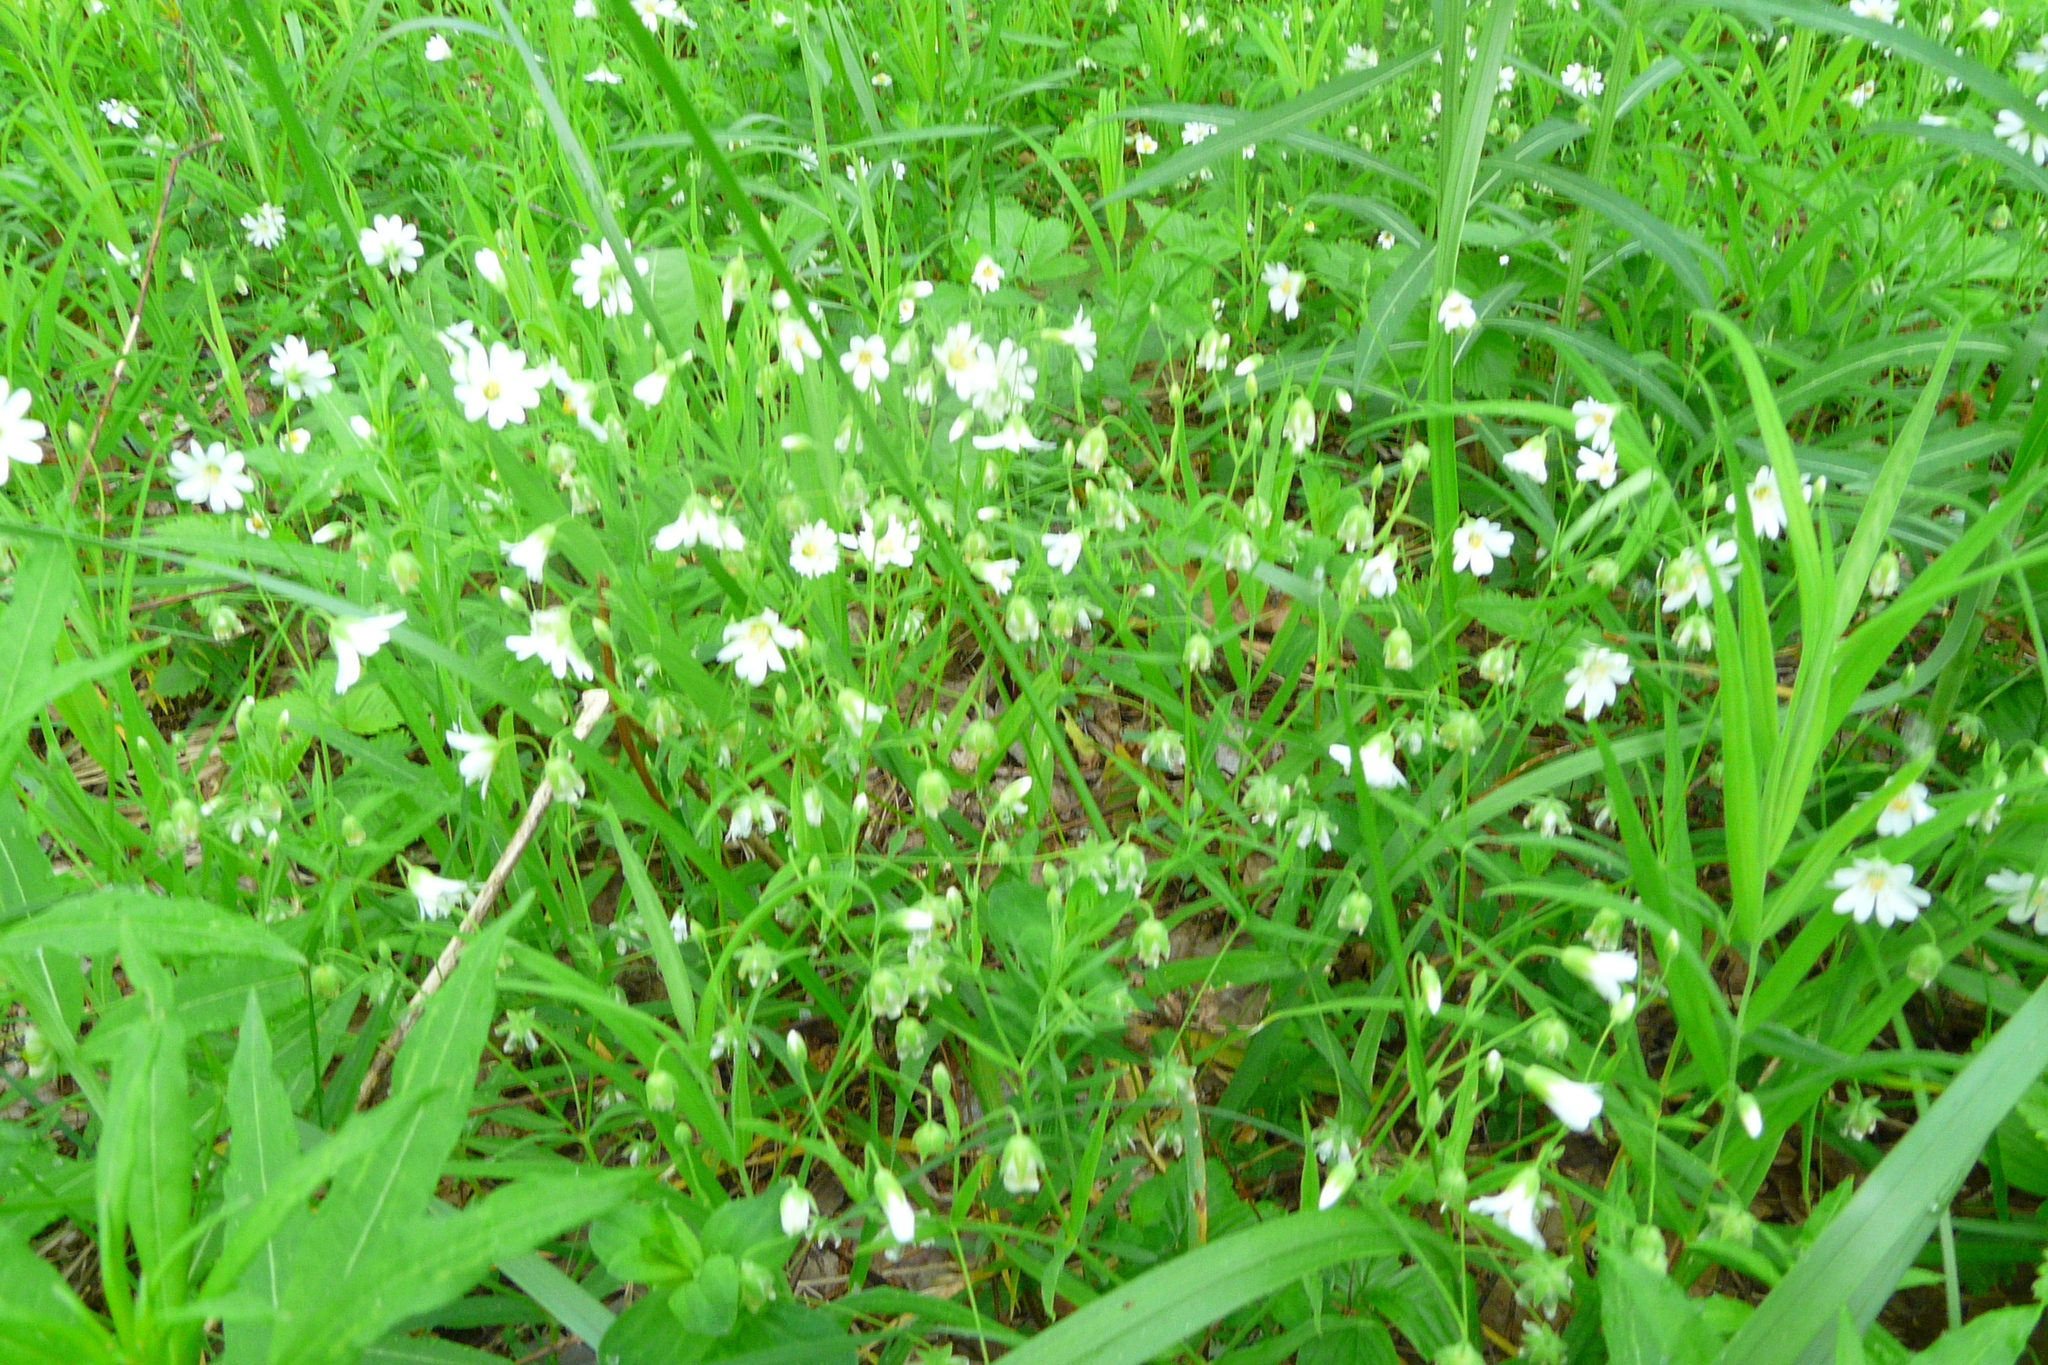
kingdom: Plantae
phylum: Tracheophyta
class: Magnoliopsida
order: Caryophyllales
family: Caryophyllaceae
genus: Rabelera
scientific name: Rabelera holostea
